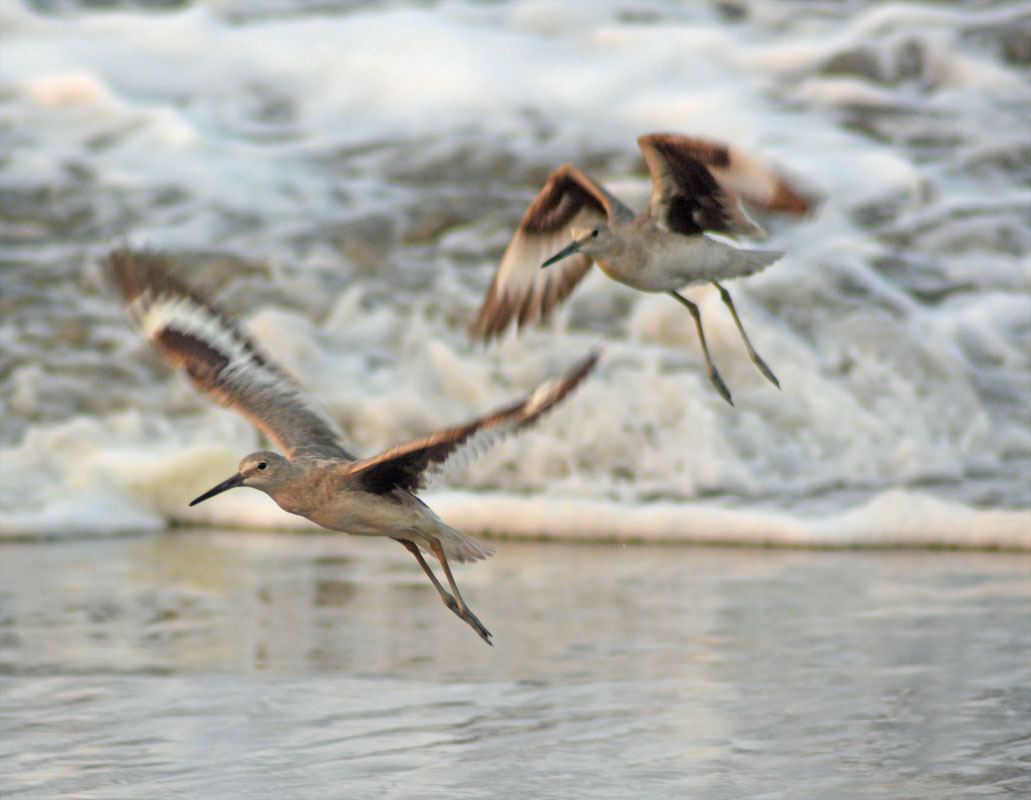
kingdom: Animalia
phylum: Chordata
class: Aves
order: Charadriiformes
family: Scolopacidae
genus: Tringa
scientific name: Tringa semipalmata
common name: Willet
